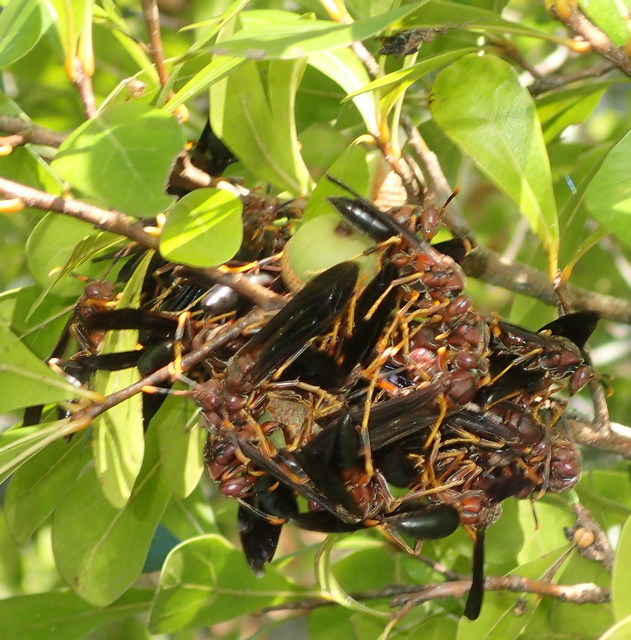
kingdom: Animalia
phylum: Arthropoda
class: Insecta
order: Hymenoptera
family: Eumenidae
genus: Polistes
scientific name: Polistes annularis
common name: Ringed paper wasp
